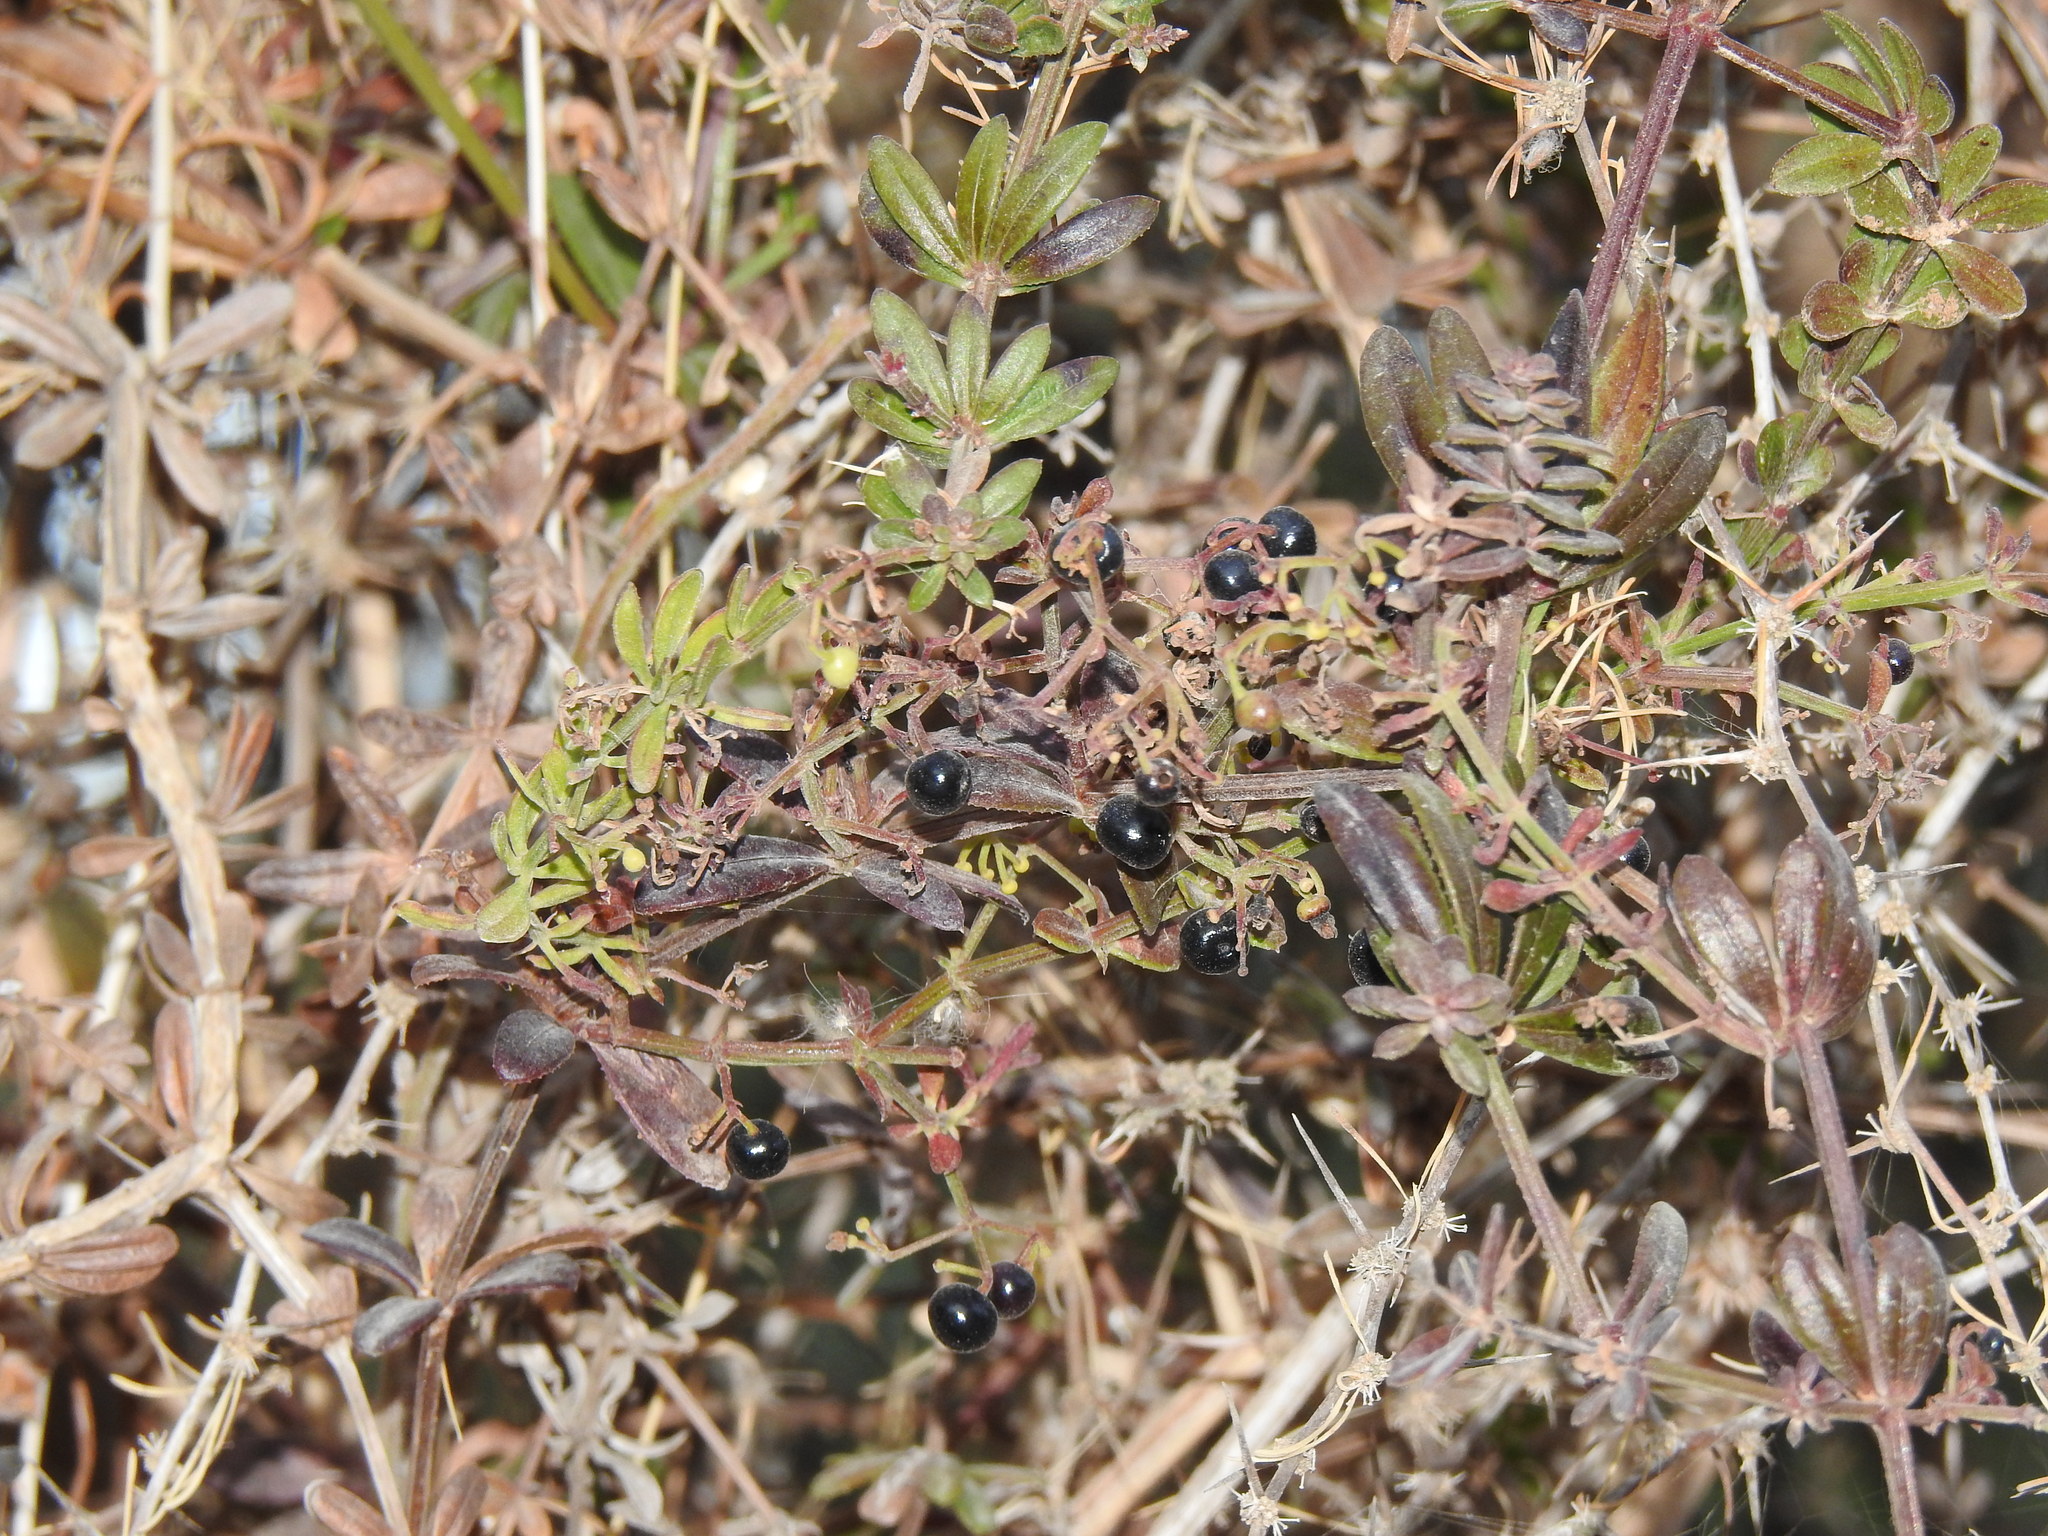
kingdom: Plantae
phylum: Tracheophyta
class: Magnoliopsida
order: Gentianales
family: Rubiaceae
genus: Rubia
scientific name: Rubia peregrina
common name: Wild madder
